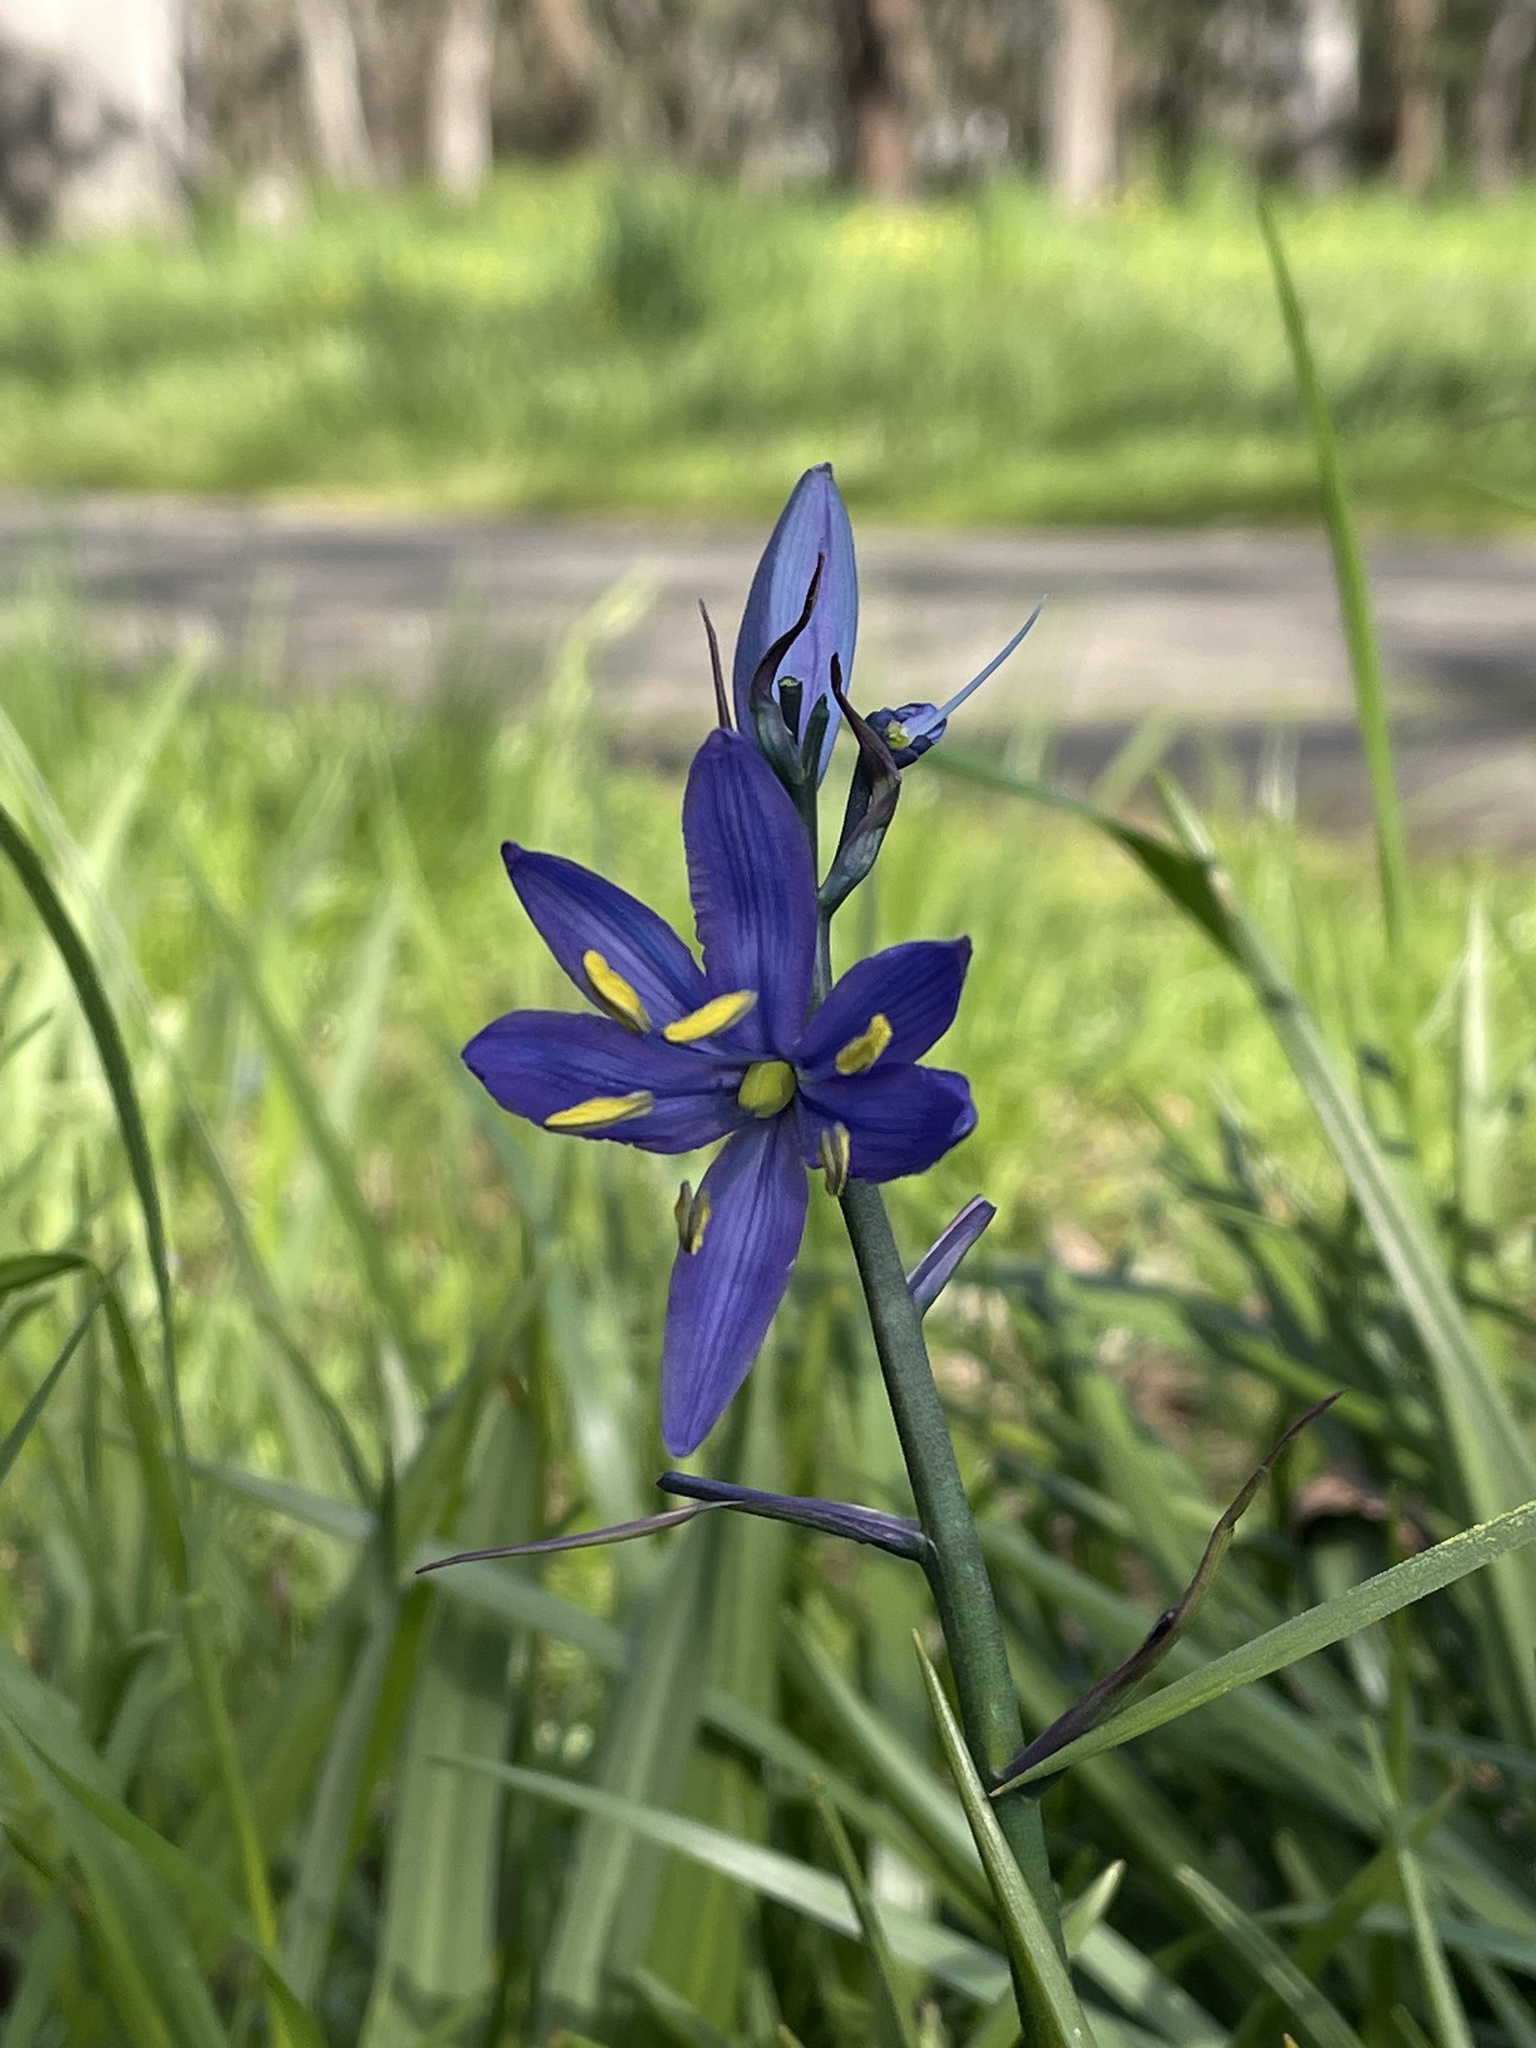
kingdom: Plantae
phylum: Tracheophyta
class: Liliopsida
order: Asparagales
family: Asparagaceae
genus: Camassia
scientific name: Camassia quamash
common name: Common camas
